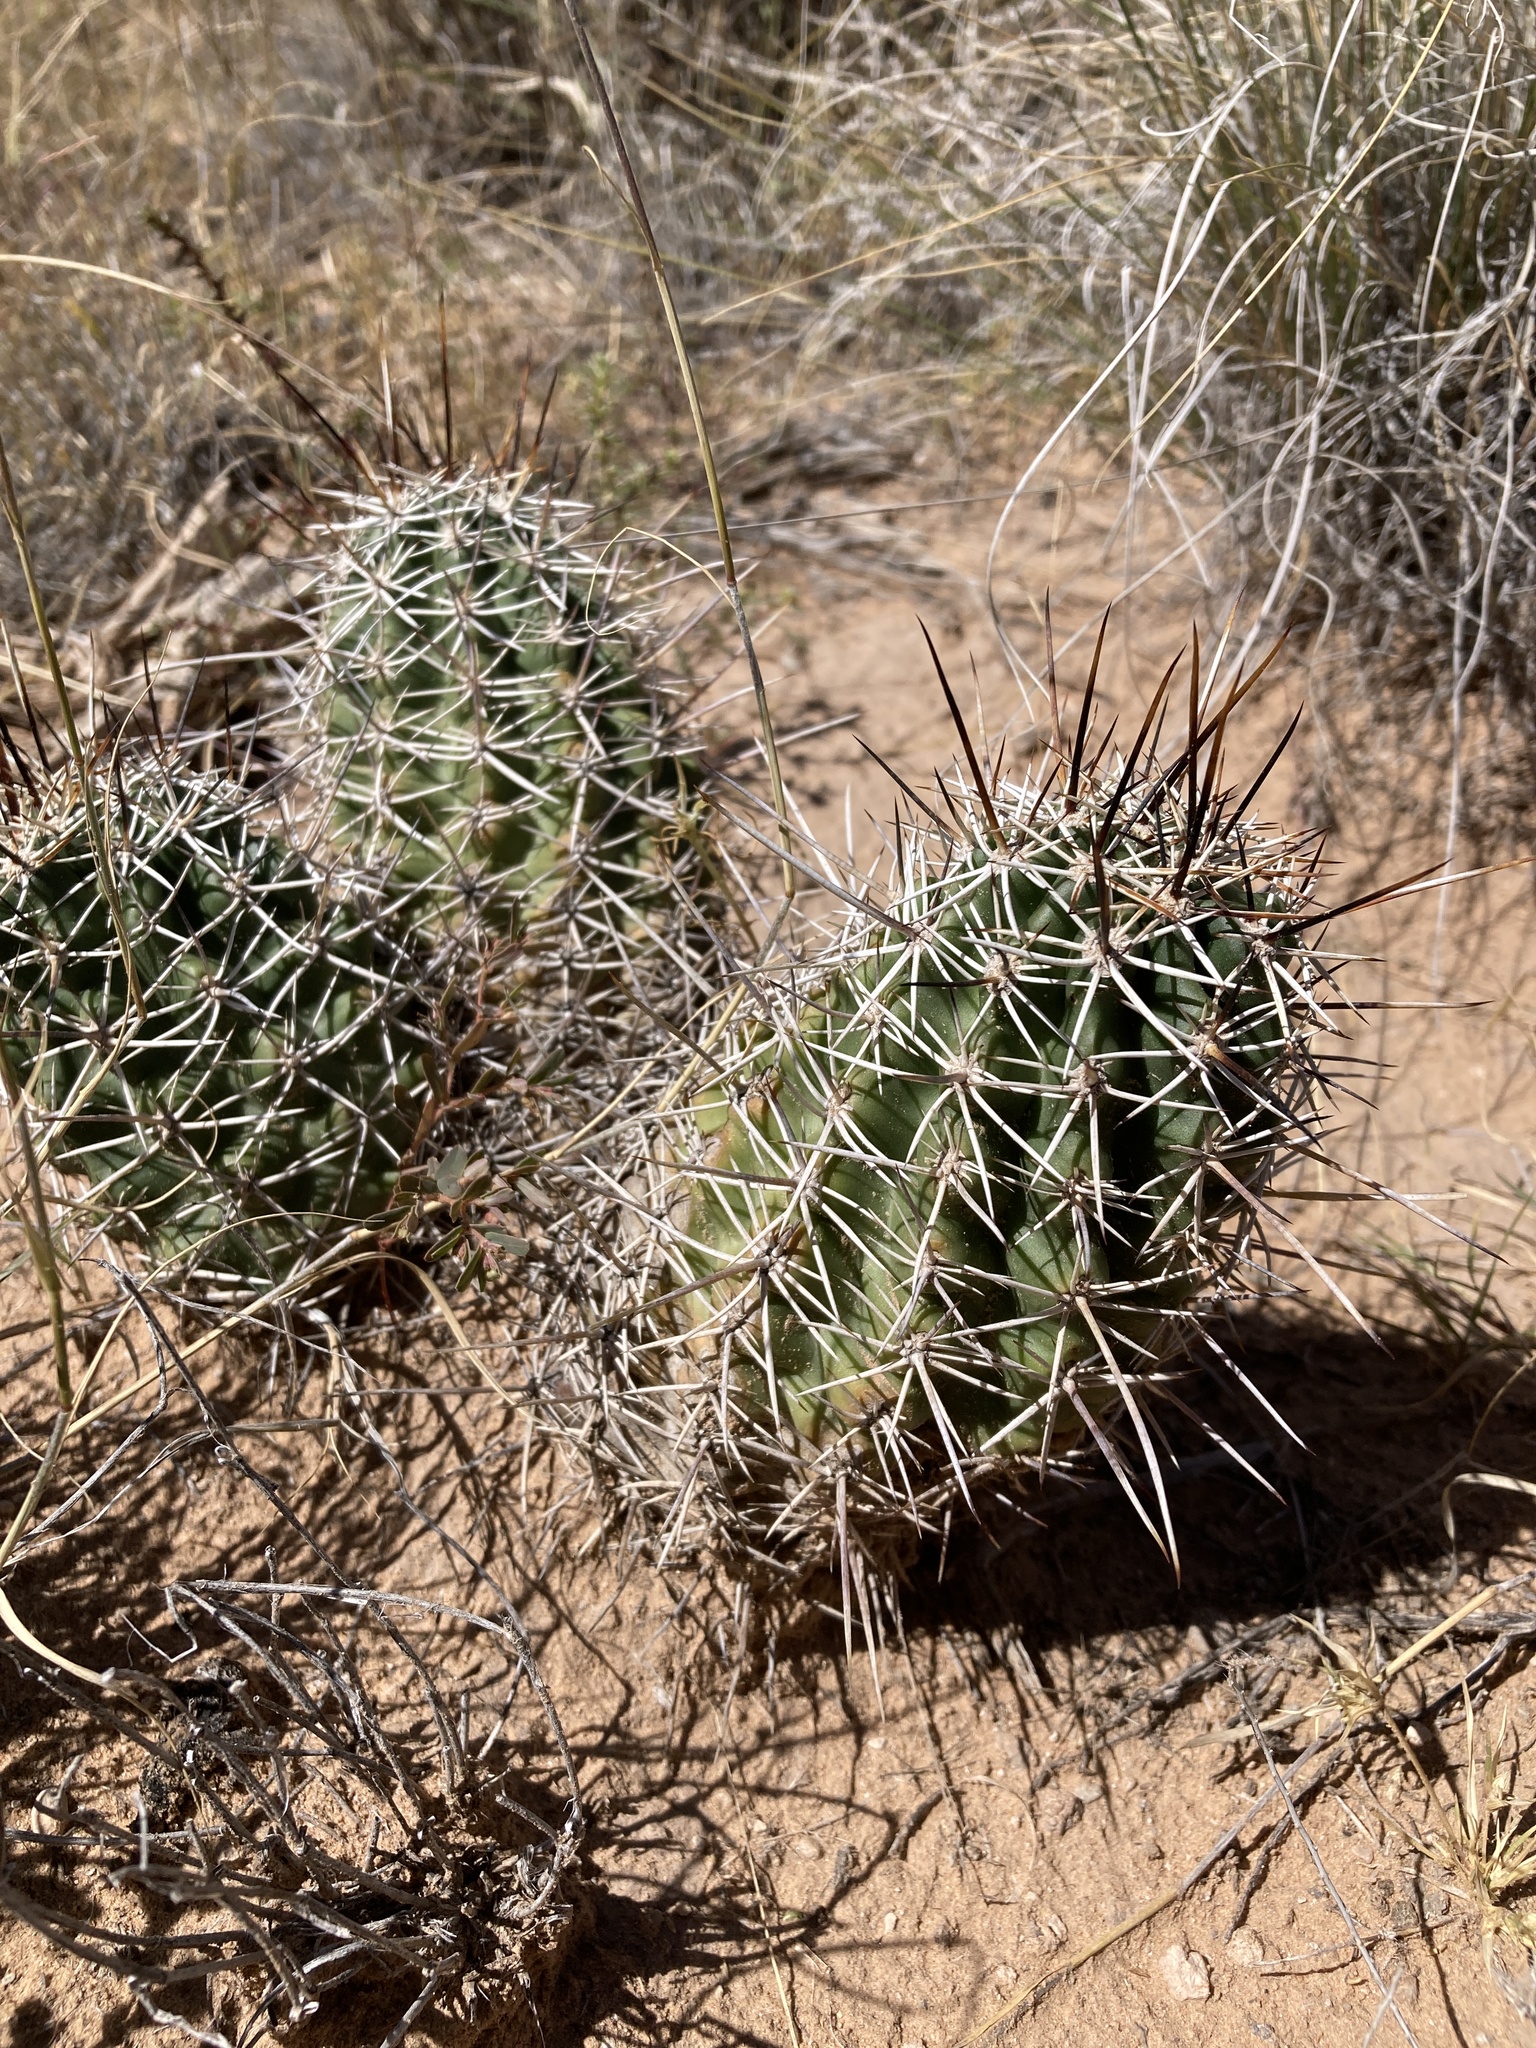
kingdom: Plantae
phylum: Tracheophyta
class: Magnoliopsida
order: Caryophyllales
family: Cactaceae
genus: Echinocereus
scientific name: Echinocereus fendleri
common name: Fendler's hedgehog cactus
